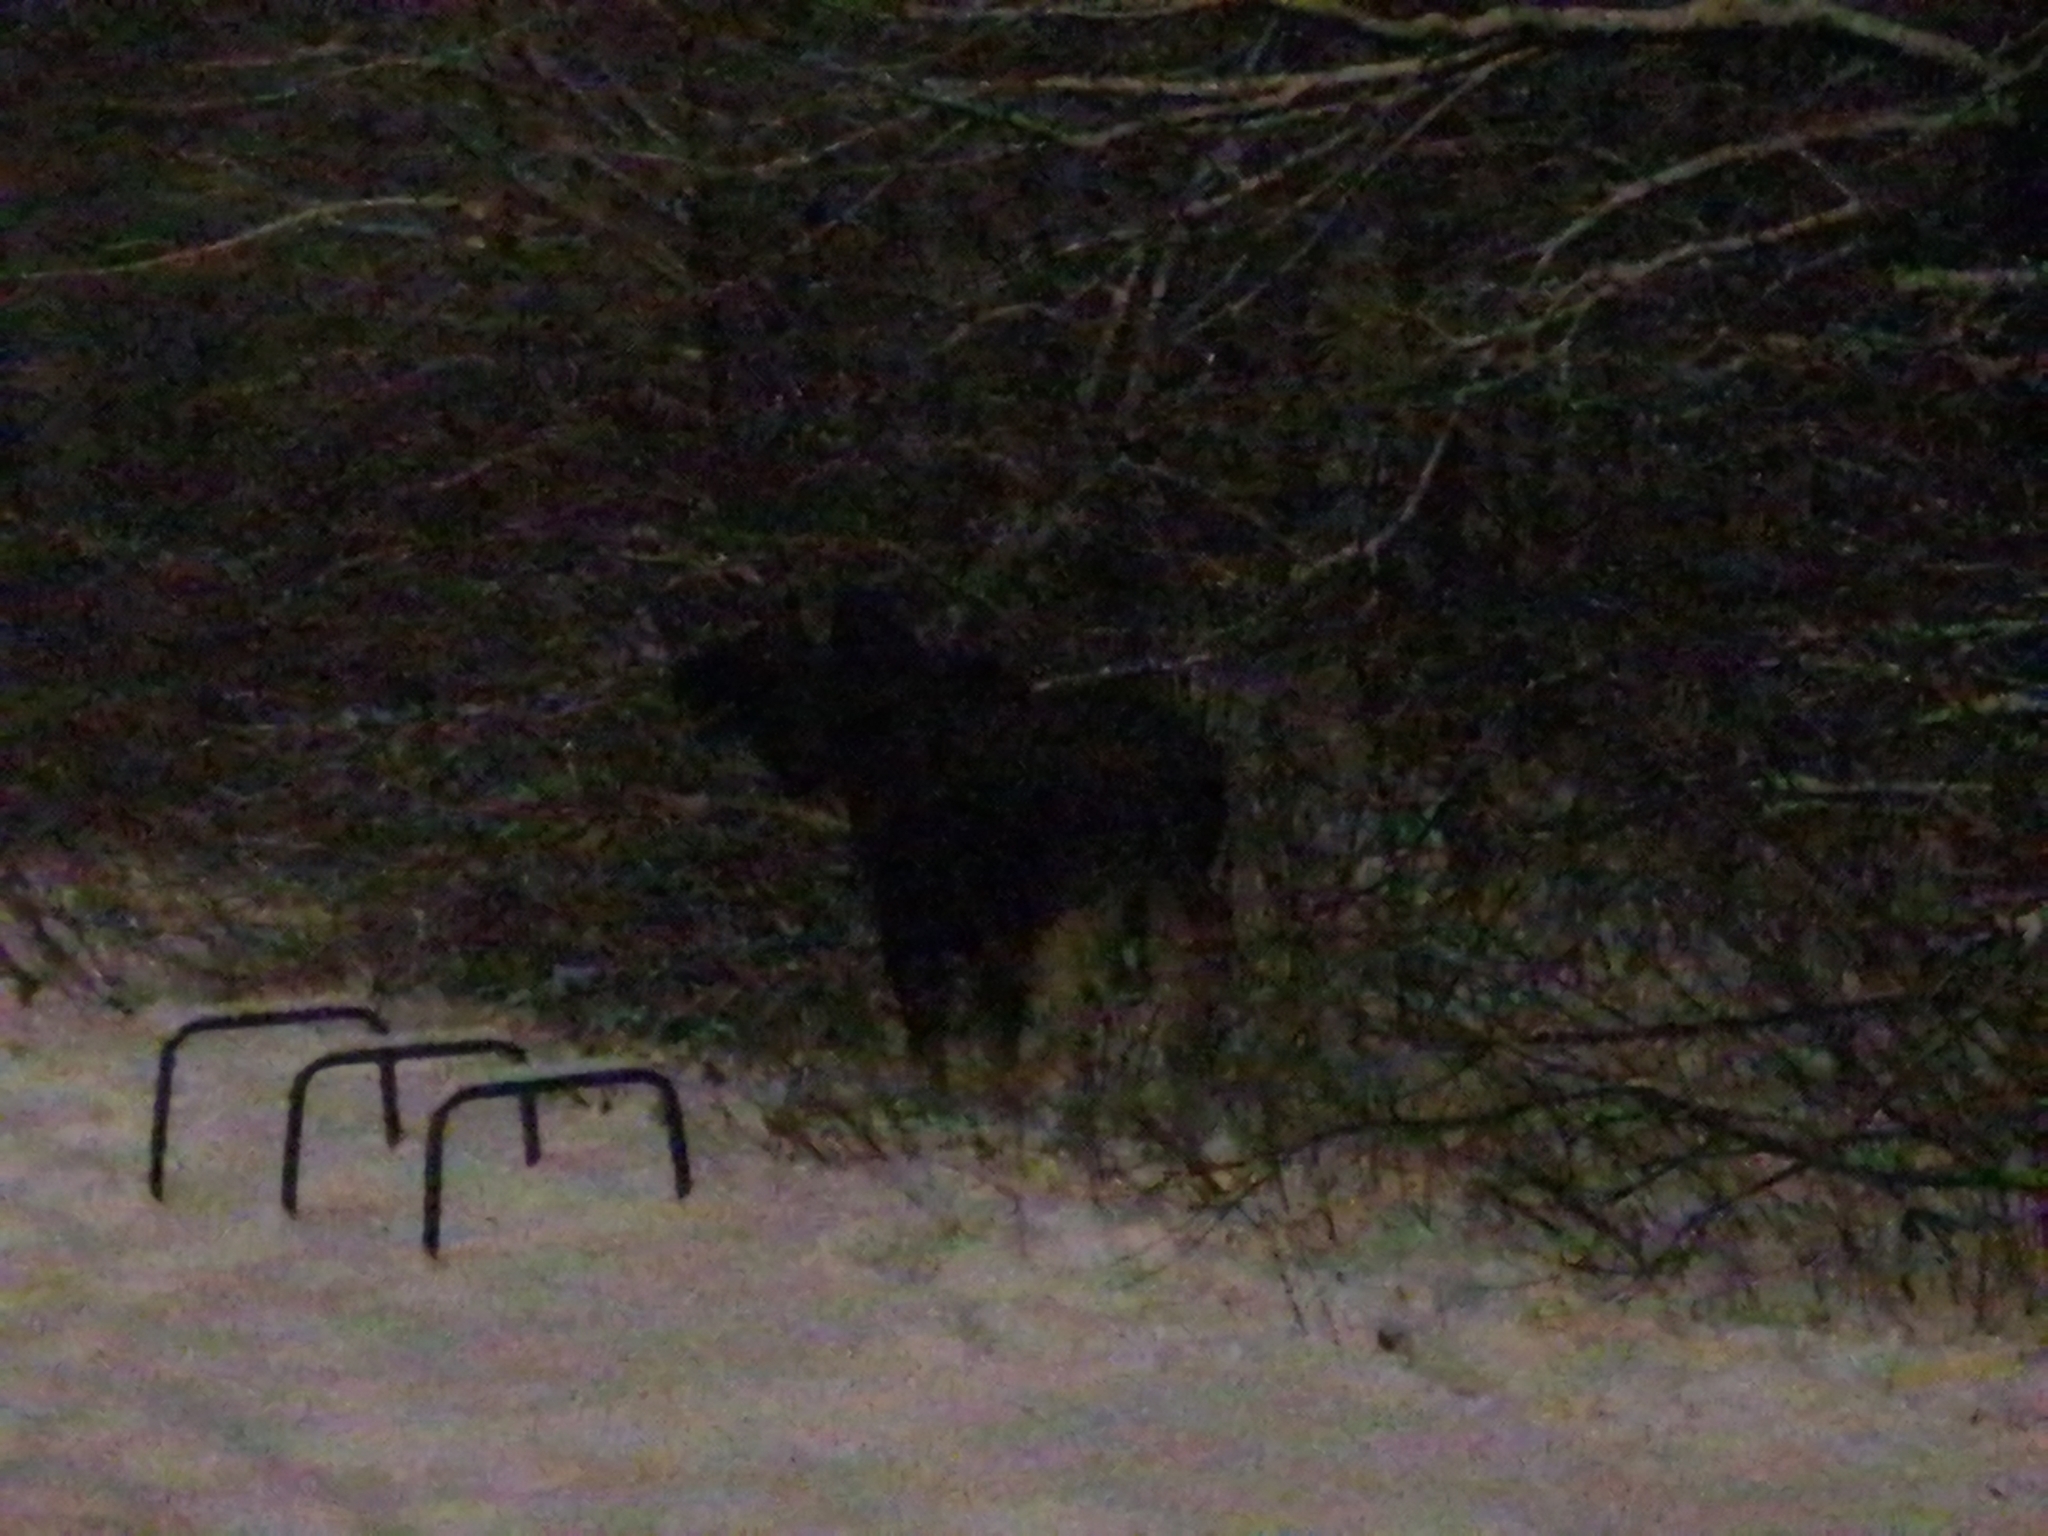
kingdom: Animalia
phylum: Chordata
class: Mammalia
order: Artiodactyla
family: Cervidae
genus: Alces
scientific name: Alces alces
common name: Moose
